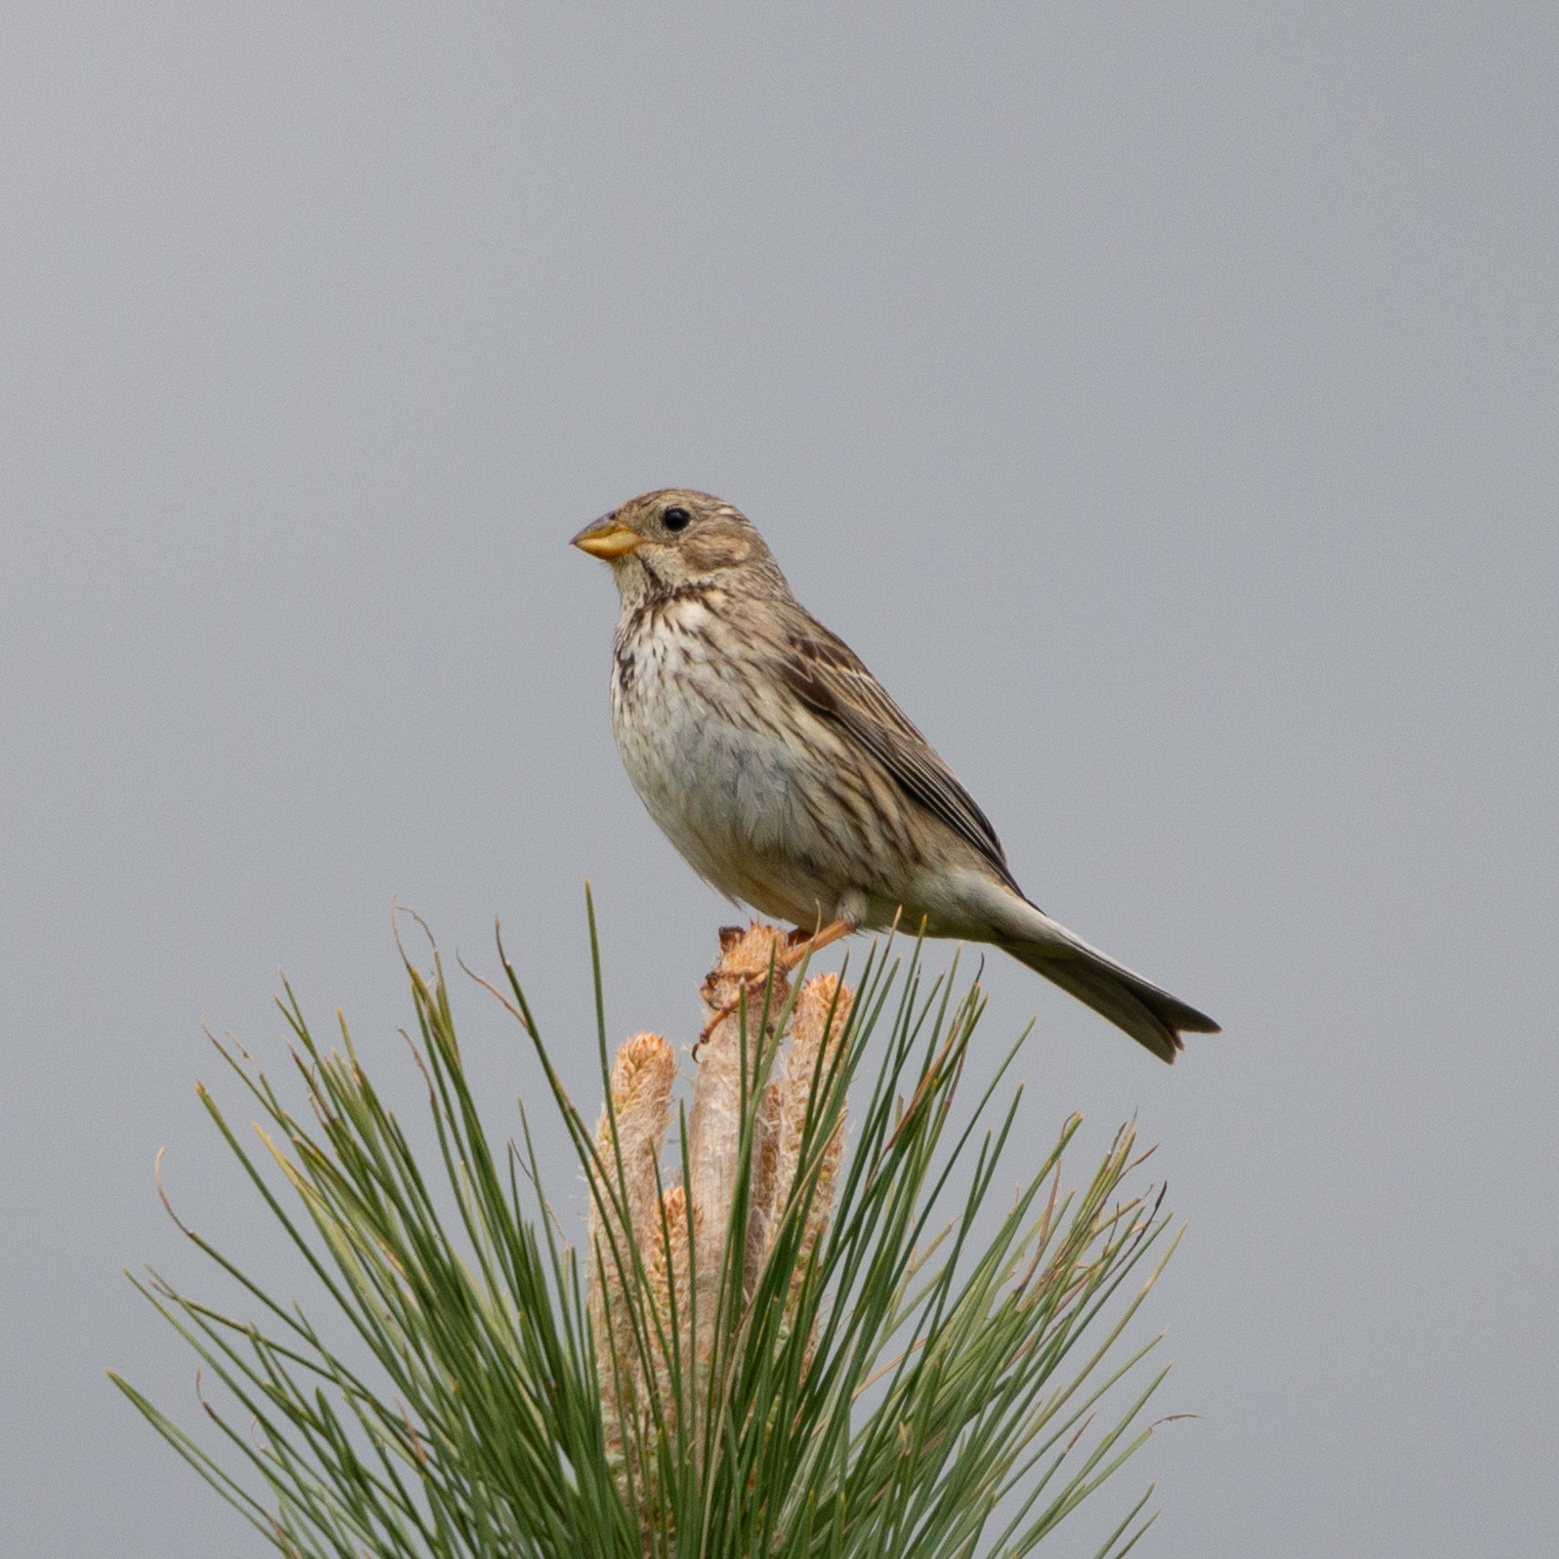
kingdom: Animalia
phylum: Chordata
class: Aves
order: Passeriformes
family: Emberizidae
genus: Emberiza
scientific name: Emberiza calandra
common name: Corn bunting
